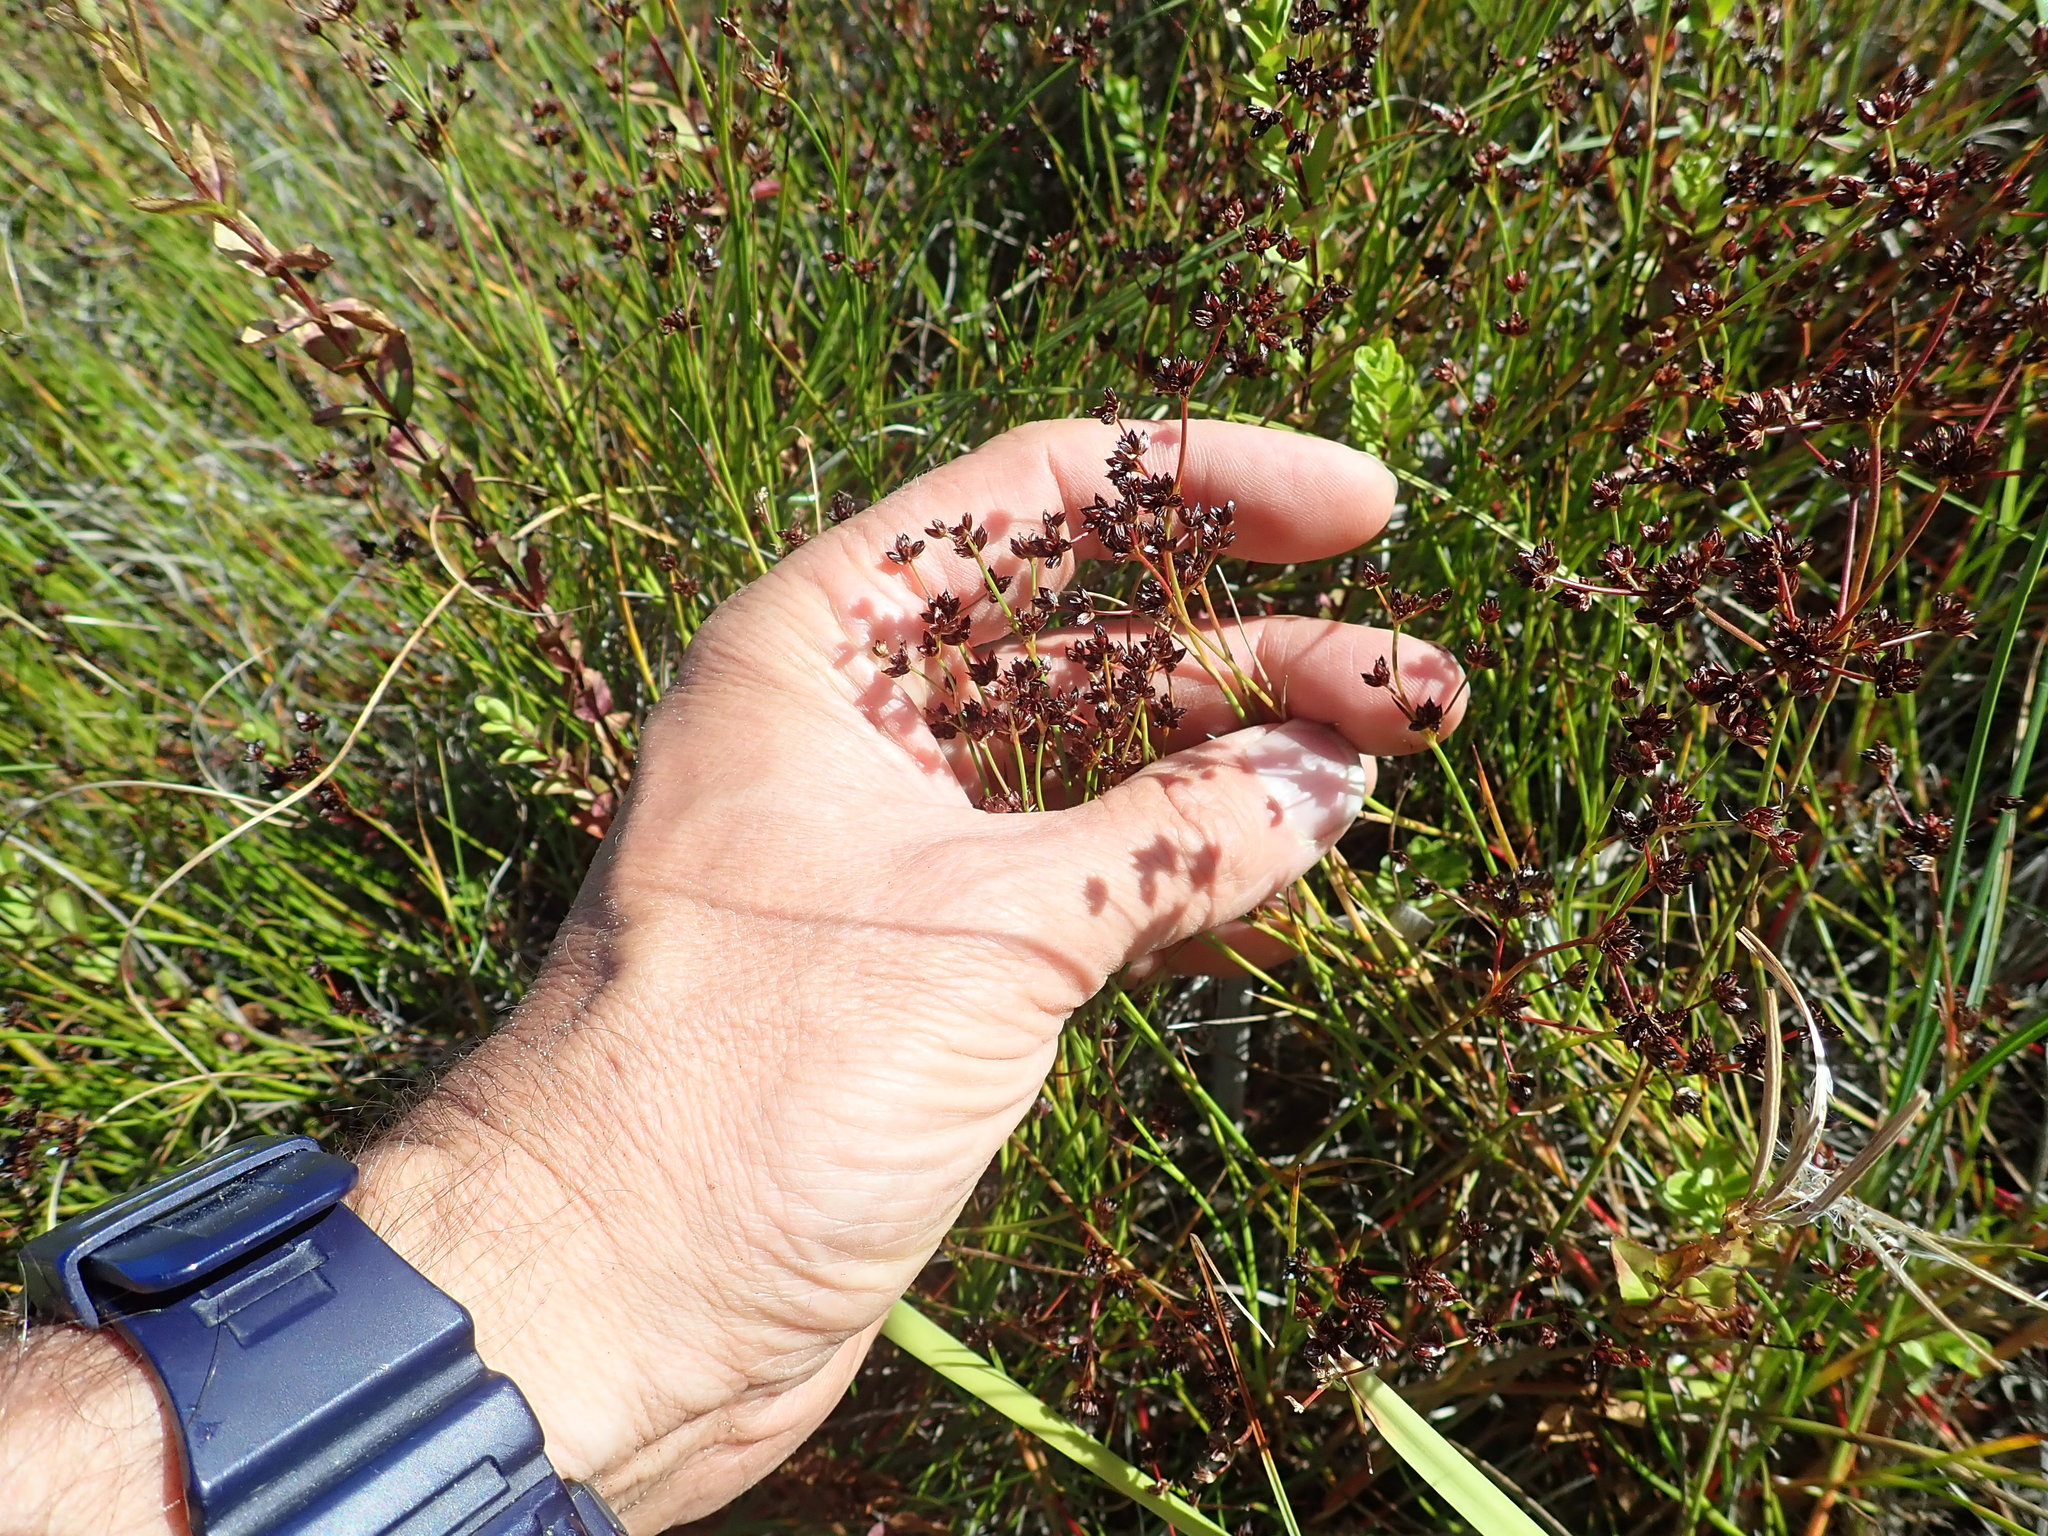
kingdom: Plantae
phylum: Tracheophyta
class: Liliopsida
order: Poales
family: Juncaceae
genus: Juncus
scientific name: Juncus articulatus
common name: Jointed rush
